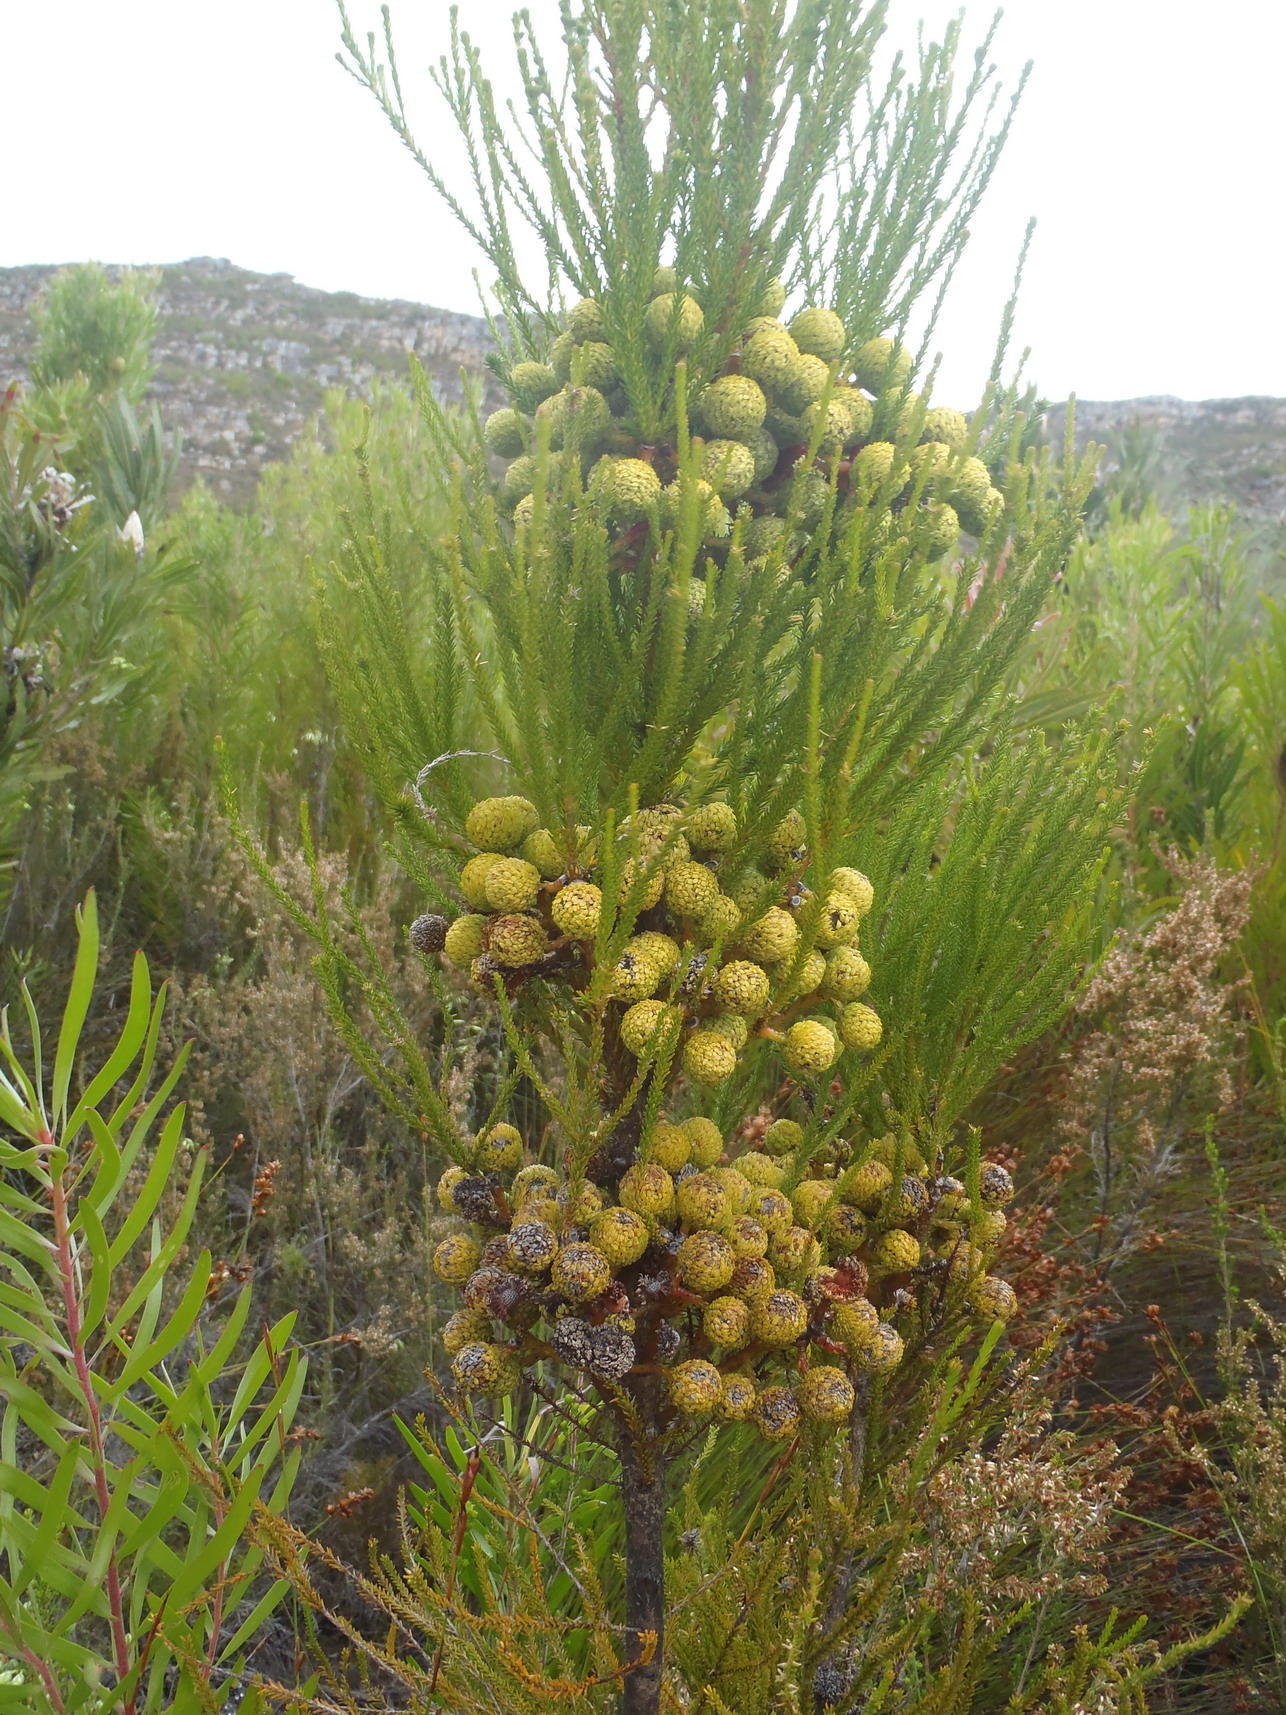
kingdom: Plantae
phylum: Tracheophyta
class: Magnoliopsida
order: Bruniales
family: Bruniaceae
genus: Berzelia
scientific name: Berzelia intermedia
